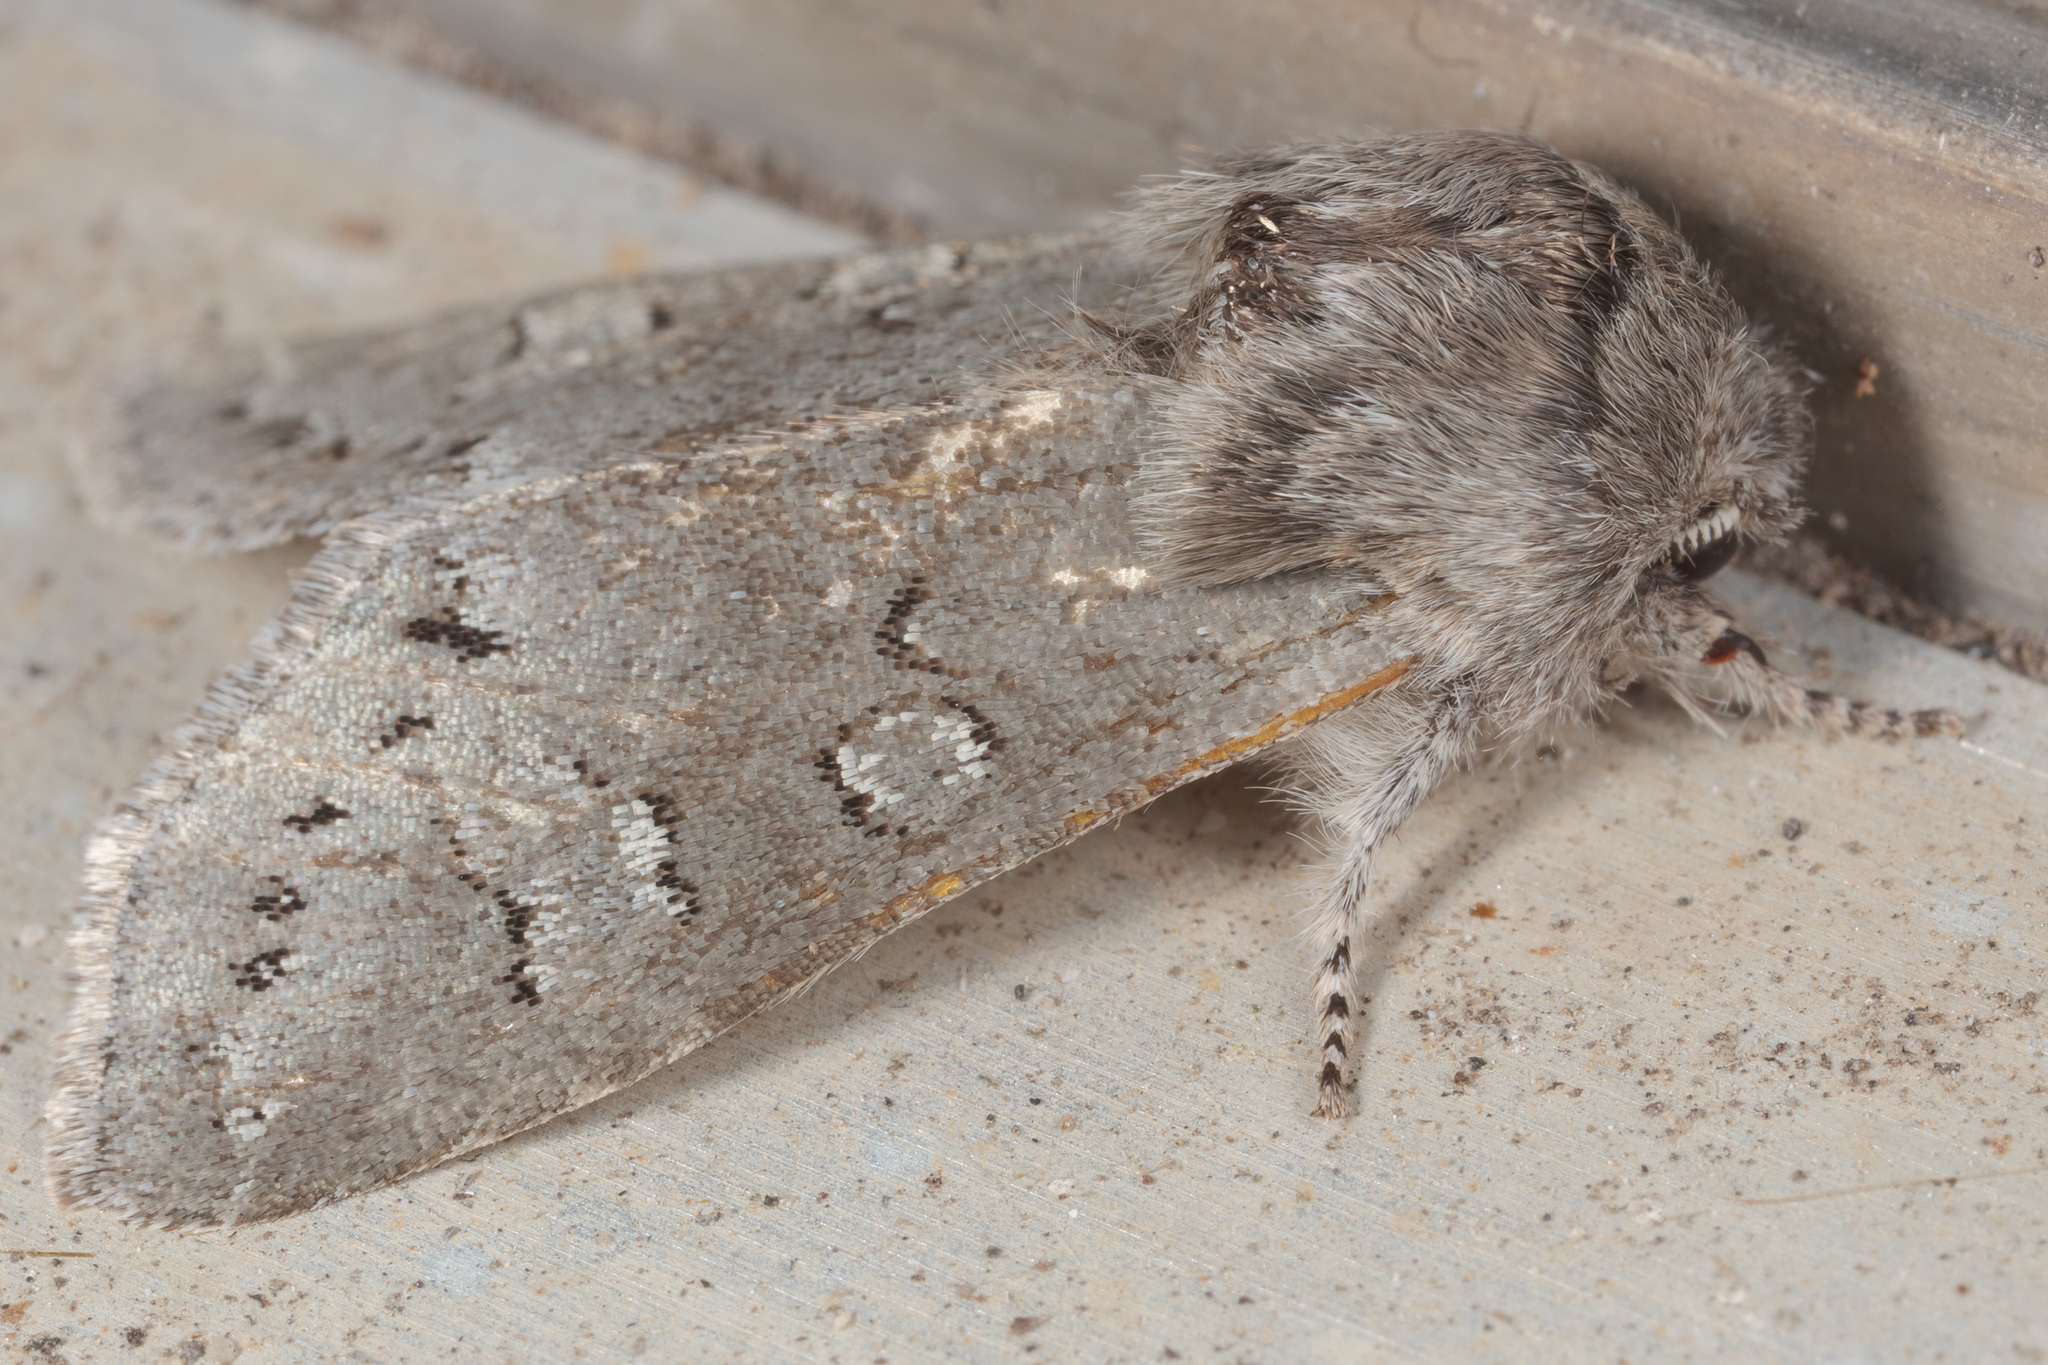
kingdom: Animalia
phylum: Arthropoda
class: Insecta
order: Lepidoptera
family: Noctuidae
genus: Psaphida
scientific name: Psaphida rolandi
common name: Roland's sallow
